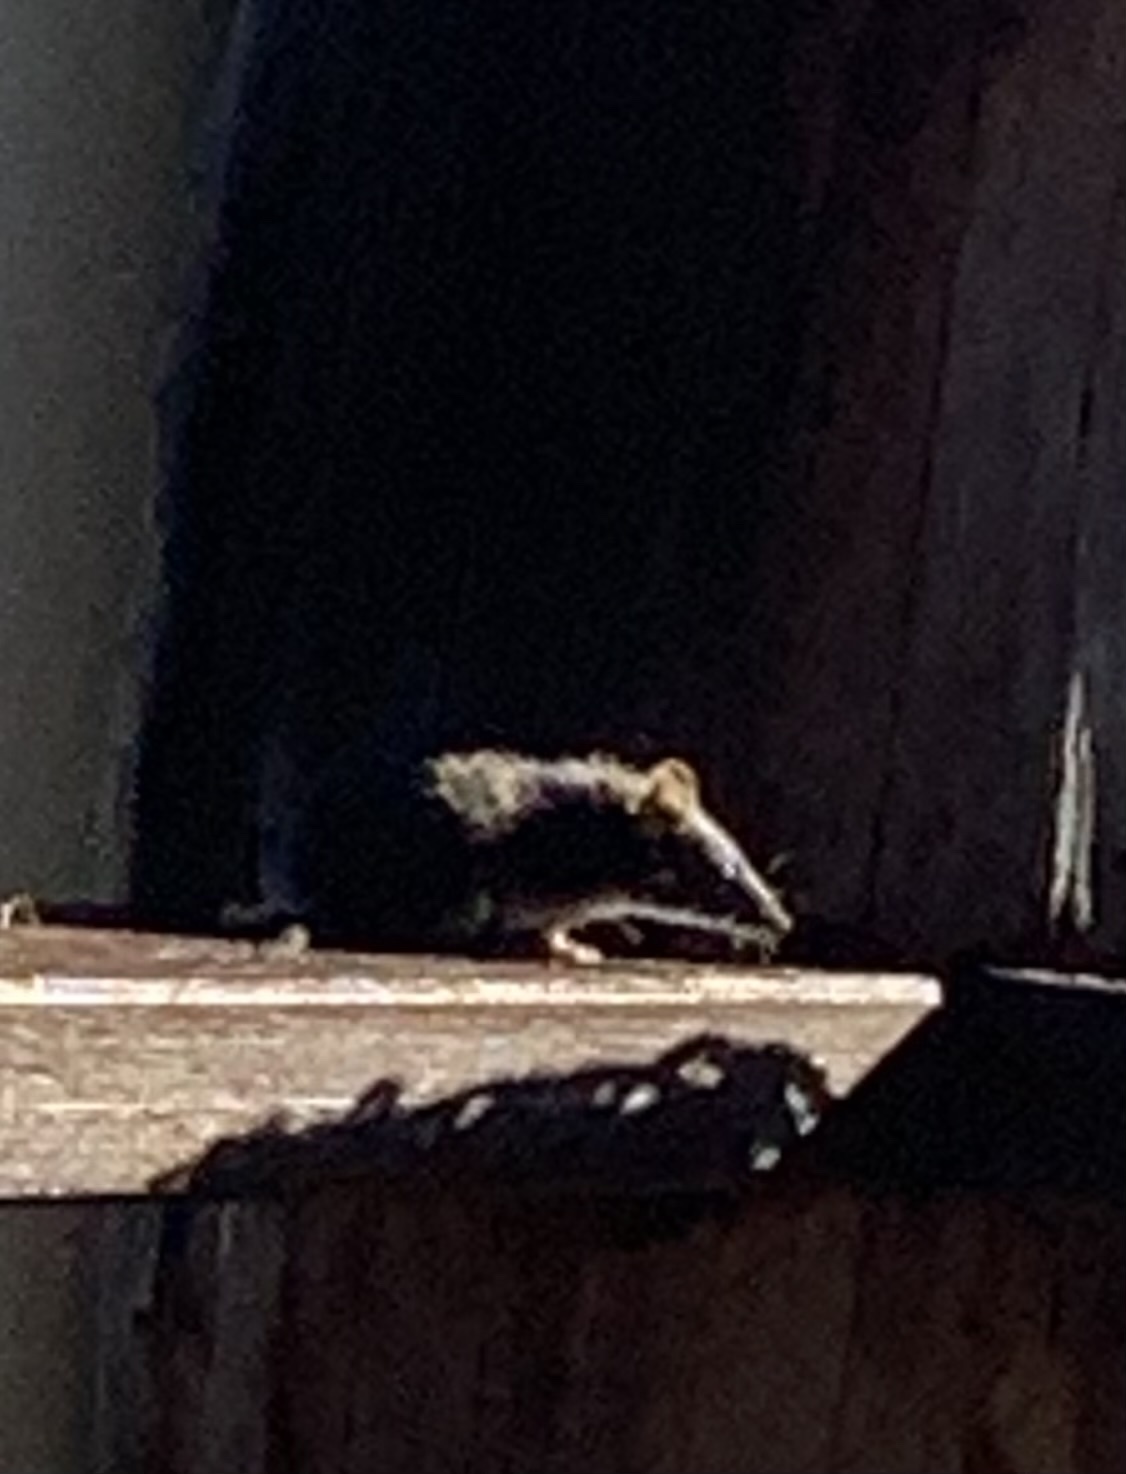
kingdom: Animalia
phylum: Chordata
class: Mammalia
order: Dasyuromorphia
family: Dasyuridae
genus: Antechinus
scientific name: Antechinus flavipes
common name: Yellow-footed antechinus
